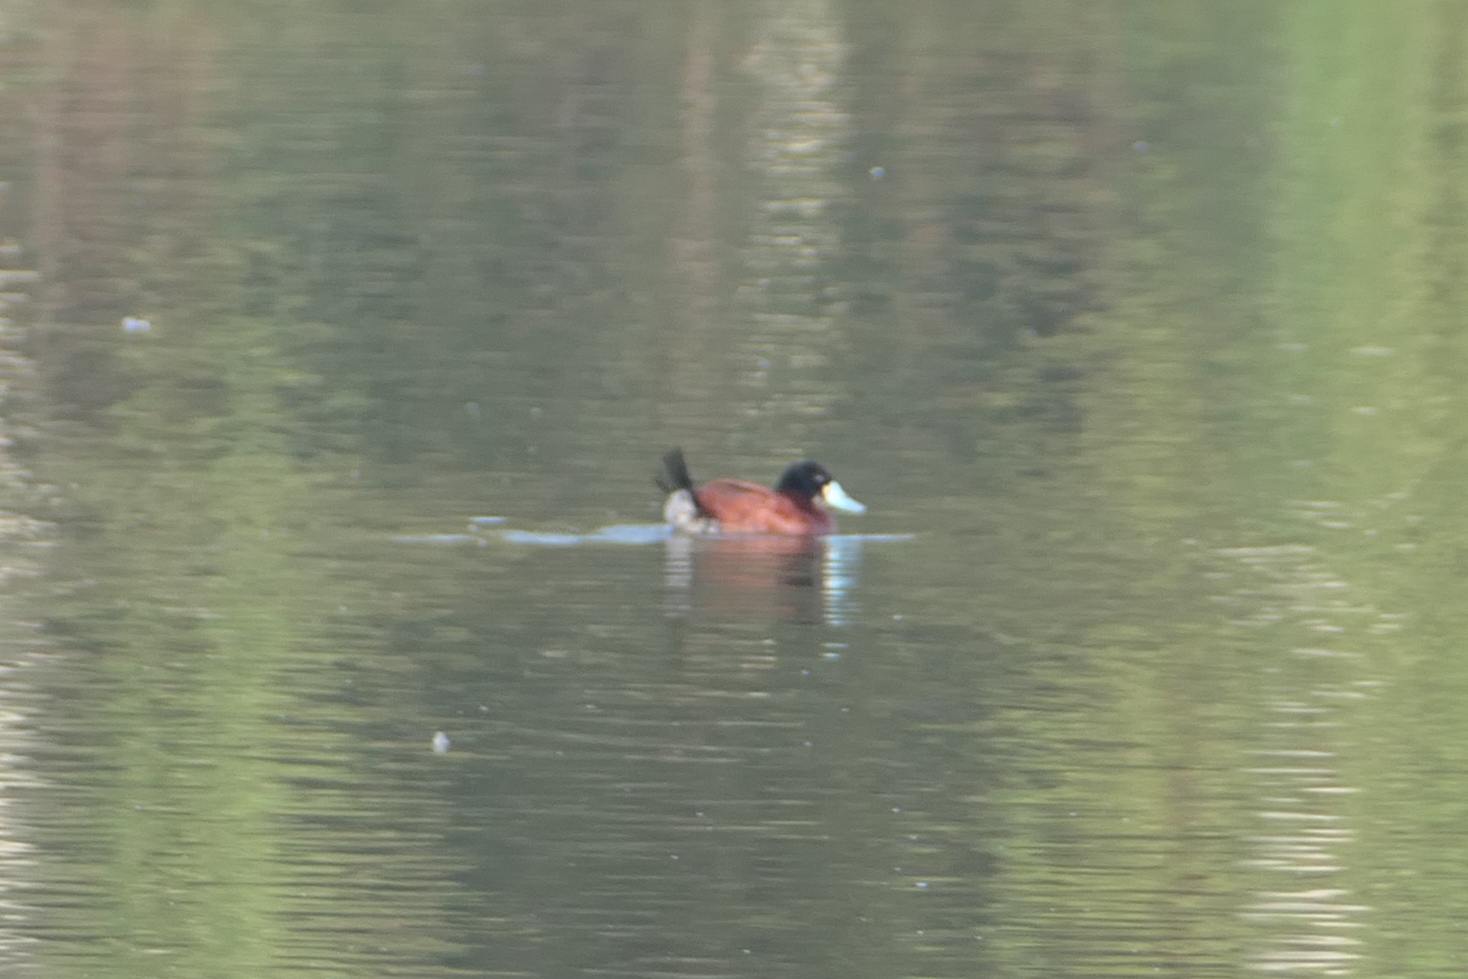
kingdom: Animalia
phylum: Chordata
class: Aves
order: Anseriformes
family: Anatidae
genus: Oxyura
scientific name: Oxyura ferruginea
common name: Andean duck
